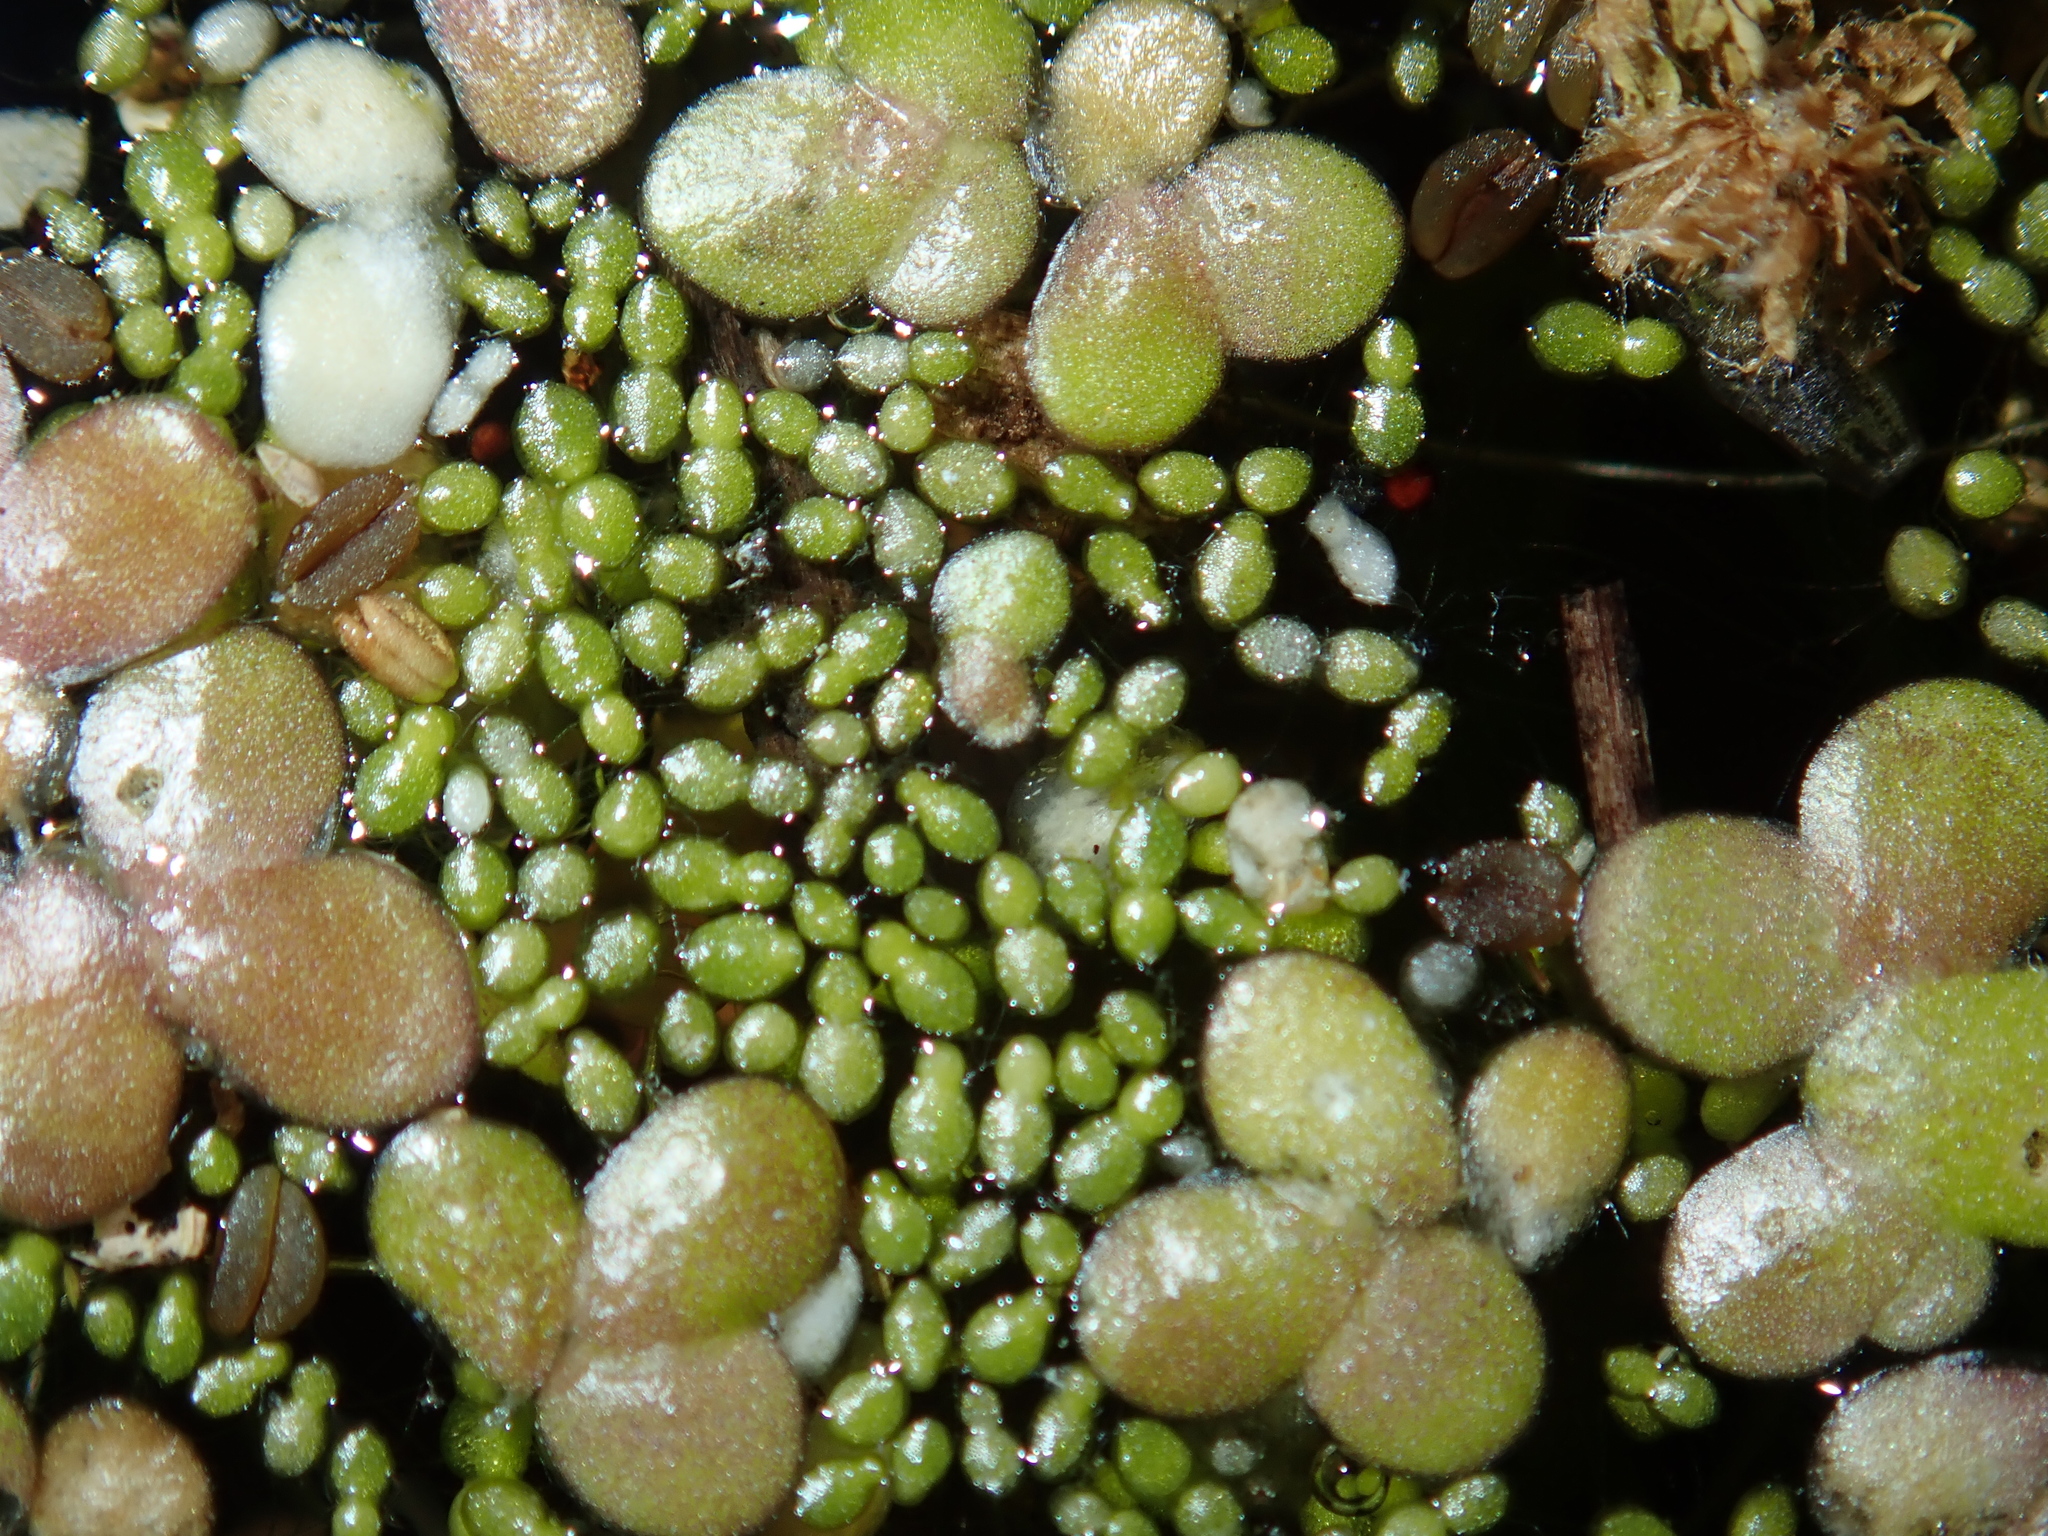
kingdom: Plantae
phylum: Tracheophyta
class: Liliopsida
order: Alismatales
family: Araceae
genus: Wolffia
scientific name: Wolffia arrhiza
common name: Rootless duckweed
